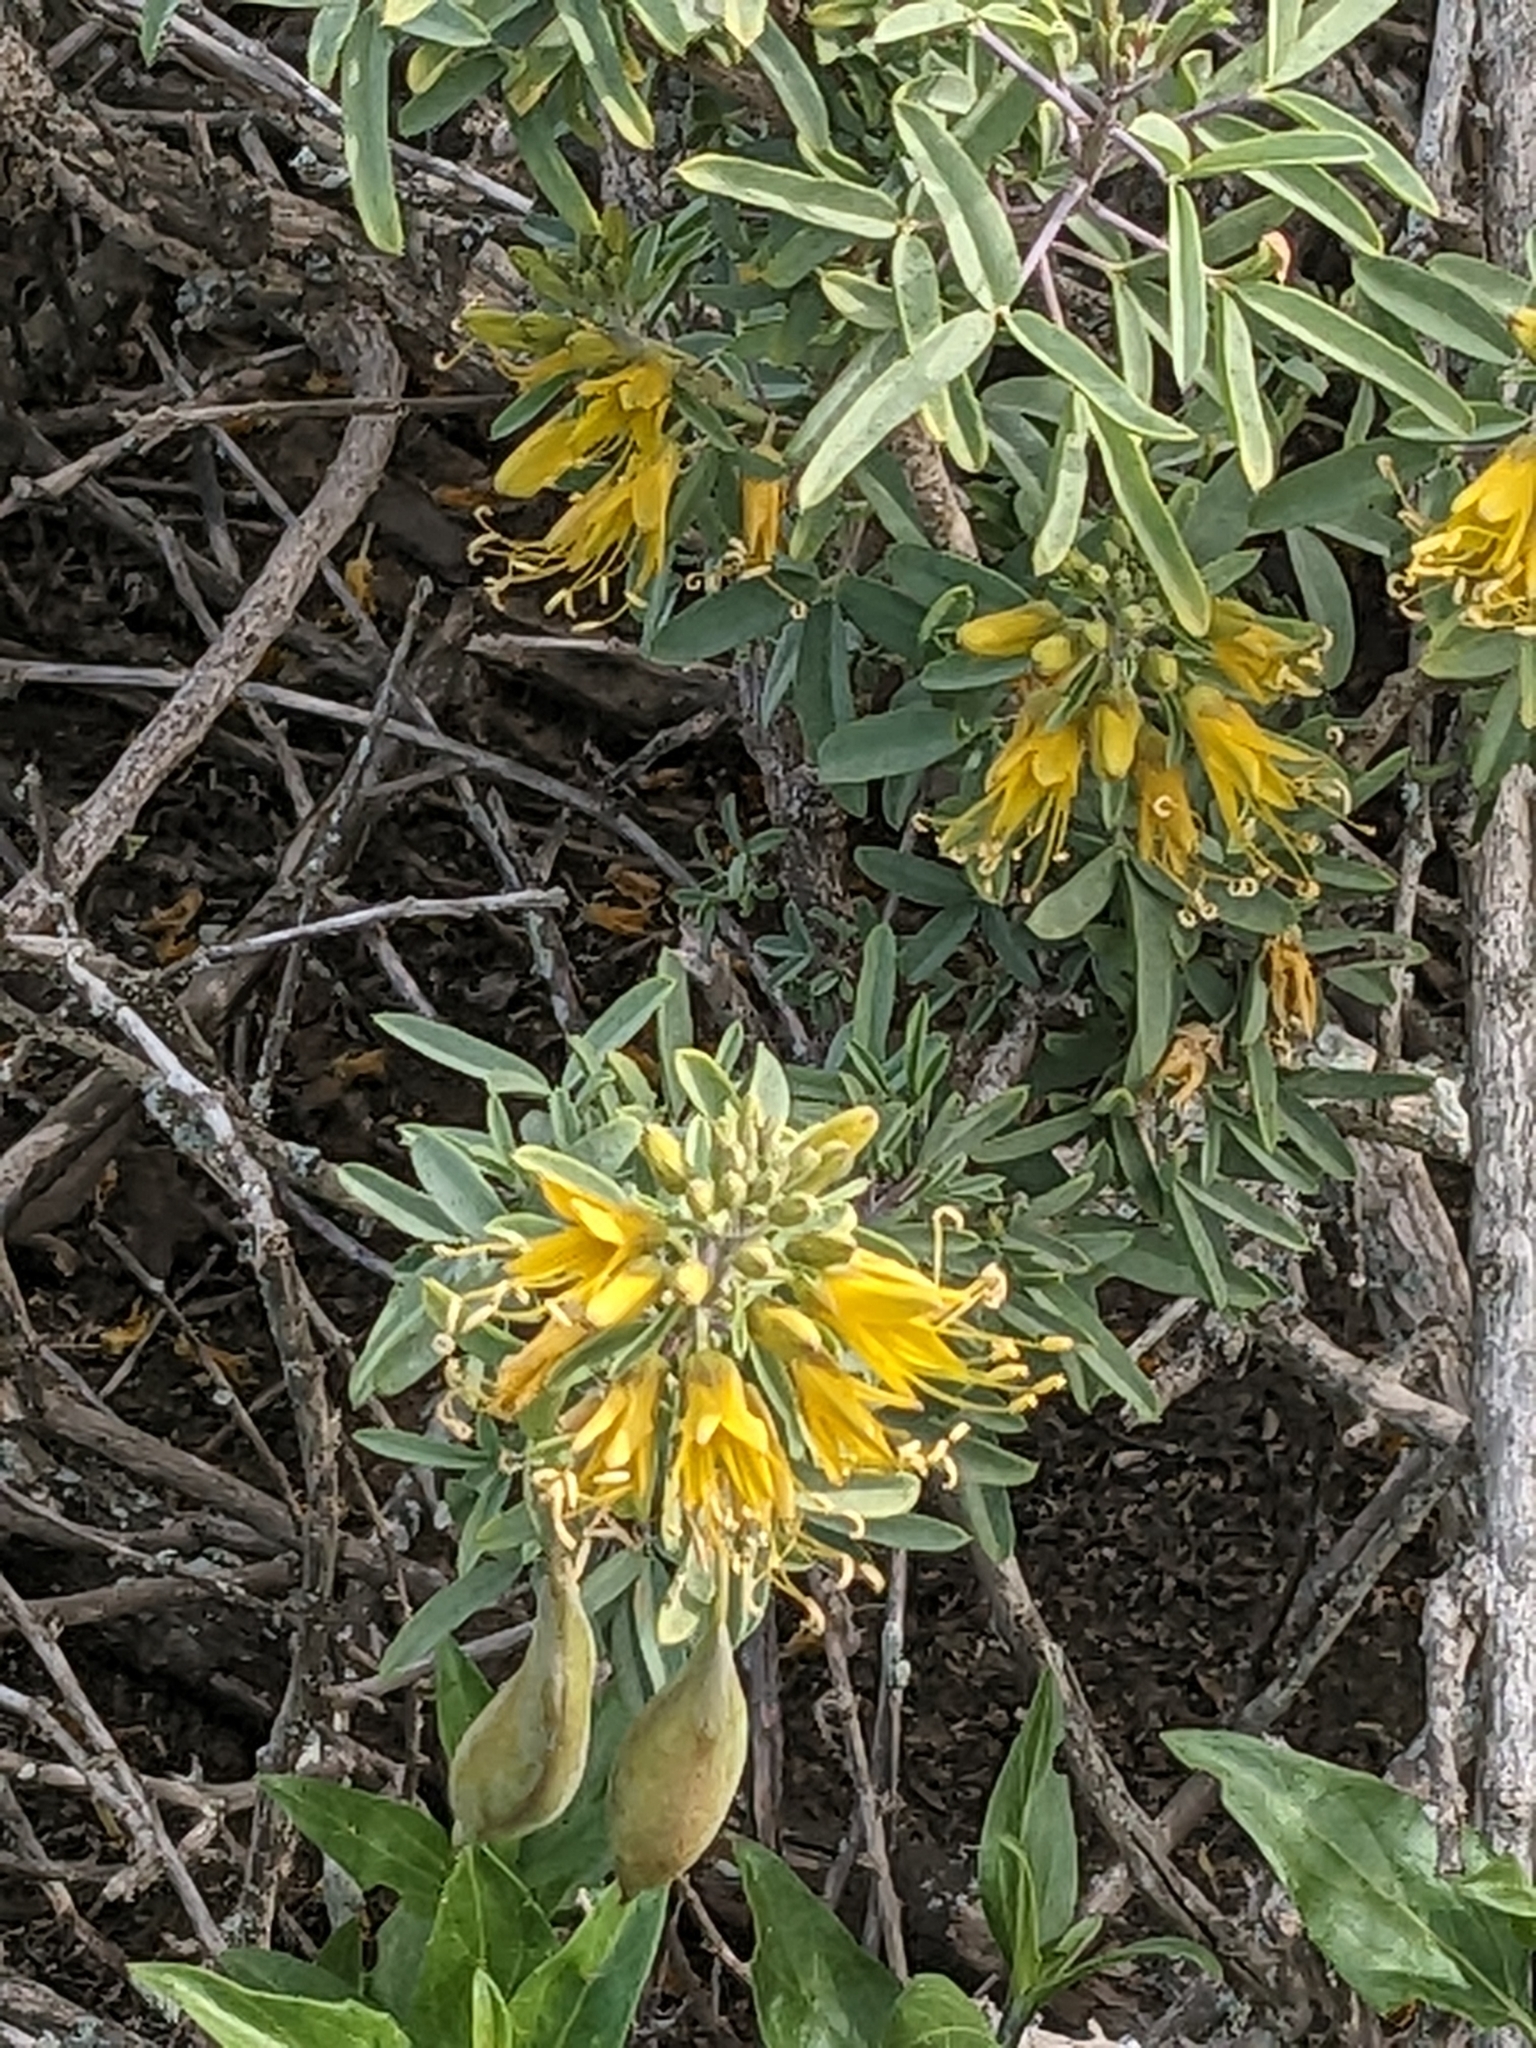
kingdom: Plantae
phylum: Tracheophyta
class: Magnoliopsida
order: Brassicales
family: Cleomaceae
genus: Cleomella
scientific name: Cleomella arborea
